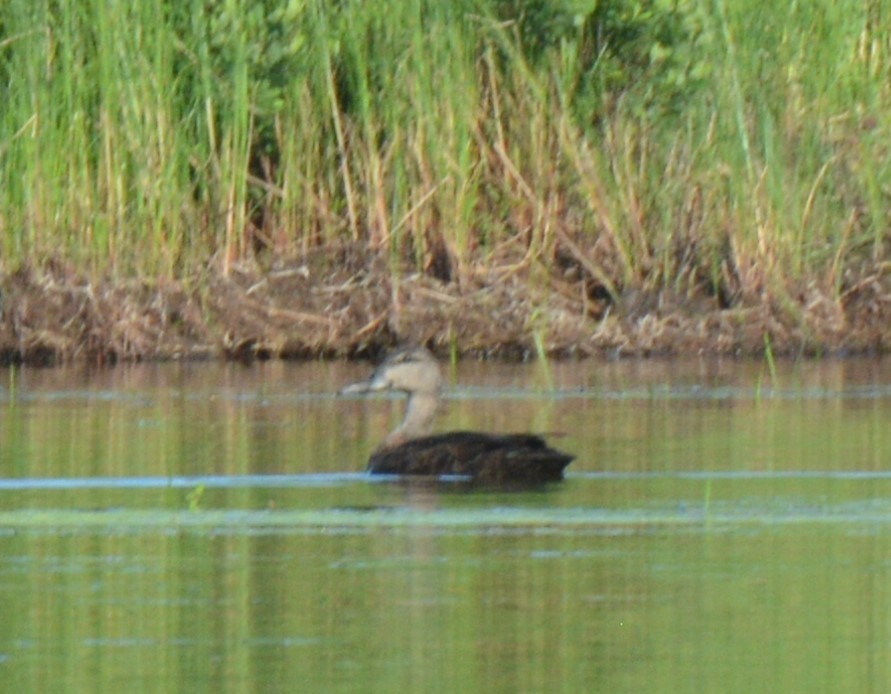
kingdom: Animalia
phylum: Chordata
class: Aves
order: Anseriformes
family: Anatidae
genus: Anas
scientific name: Anas rubripes
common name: American black duck
